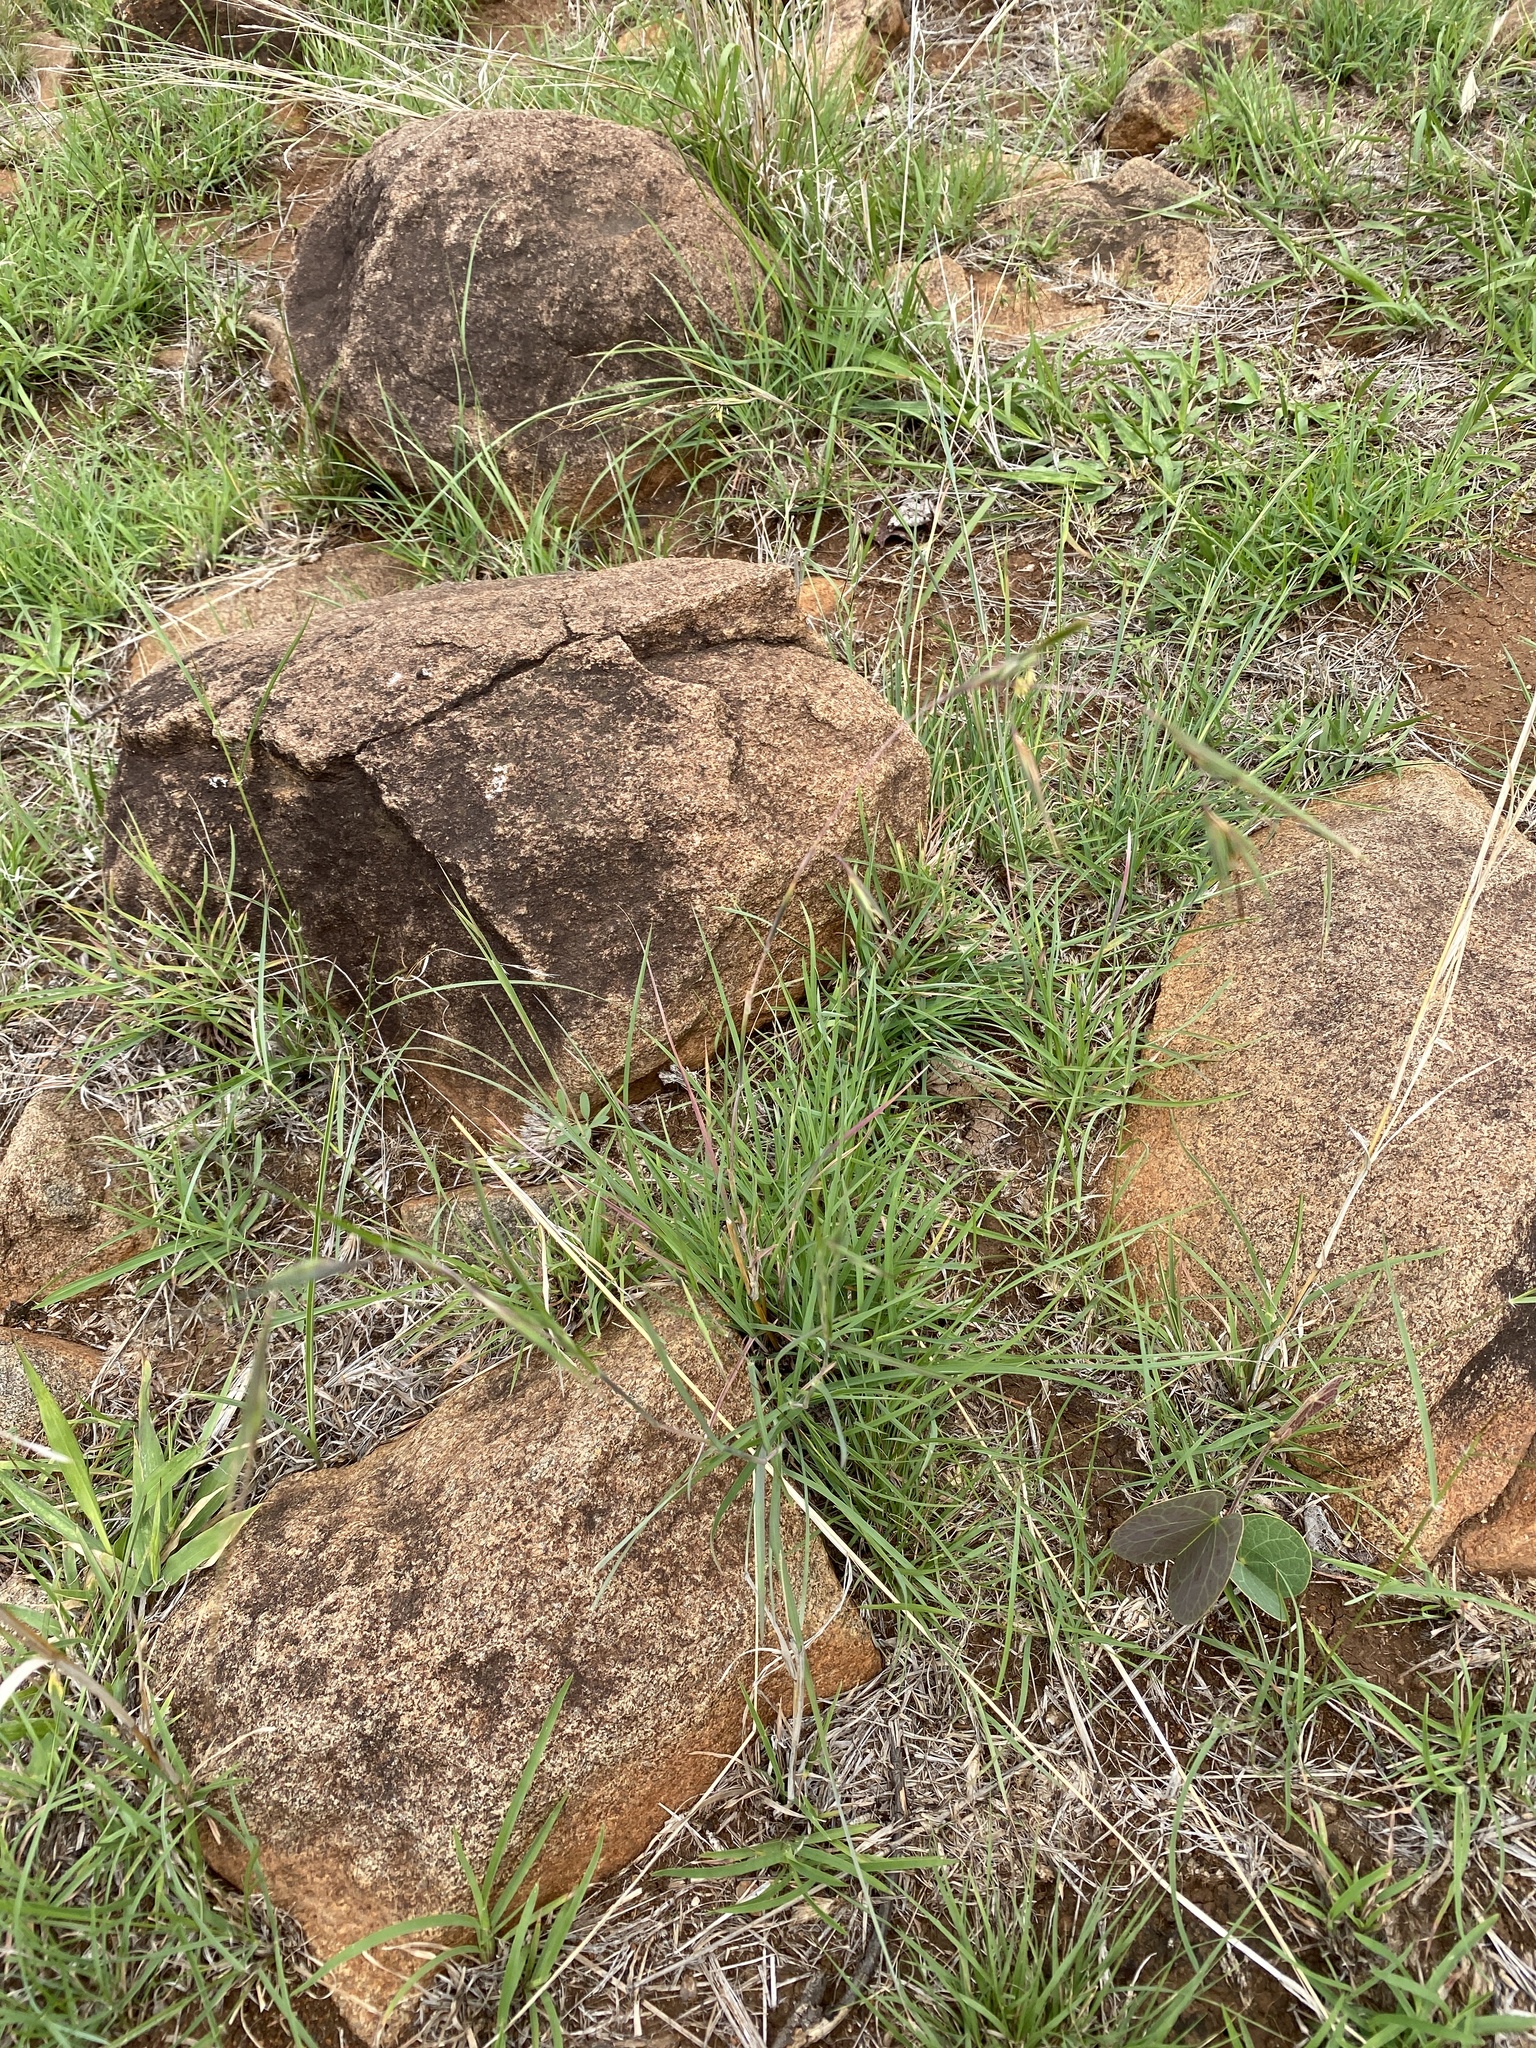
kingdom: Plantae
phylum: Tracheophyta
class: Liliopsida
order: Poales
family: Poaceae
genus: Themeda
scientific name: Themeda triandra
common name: Kangaroo grass
